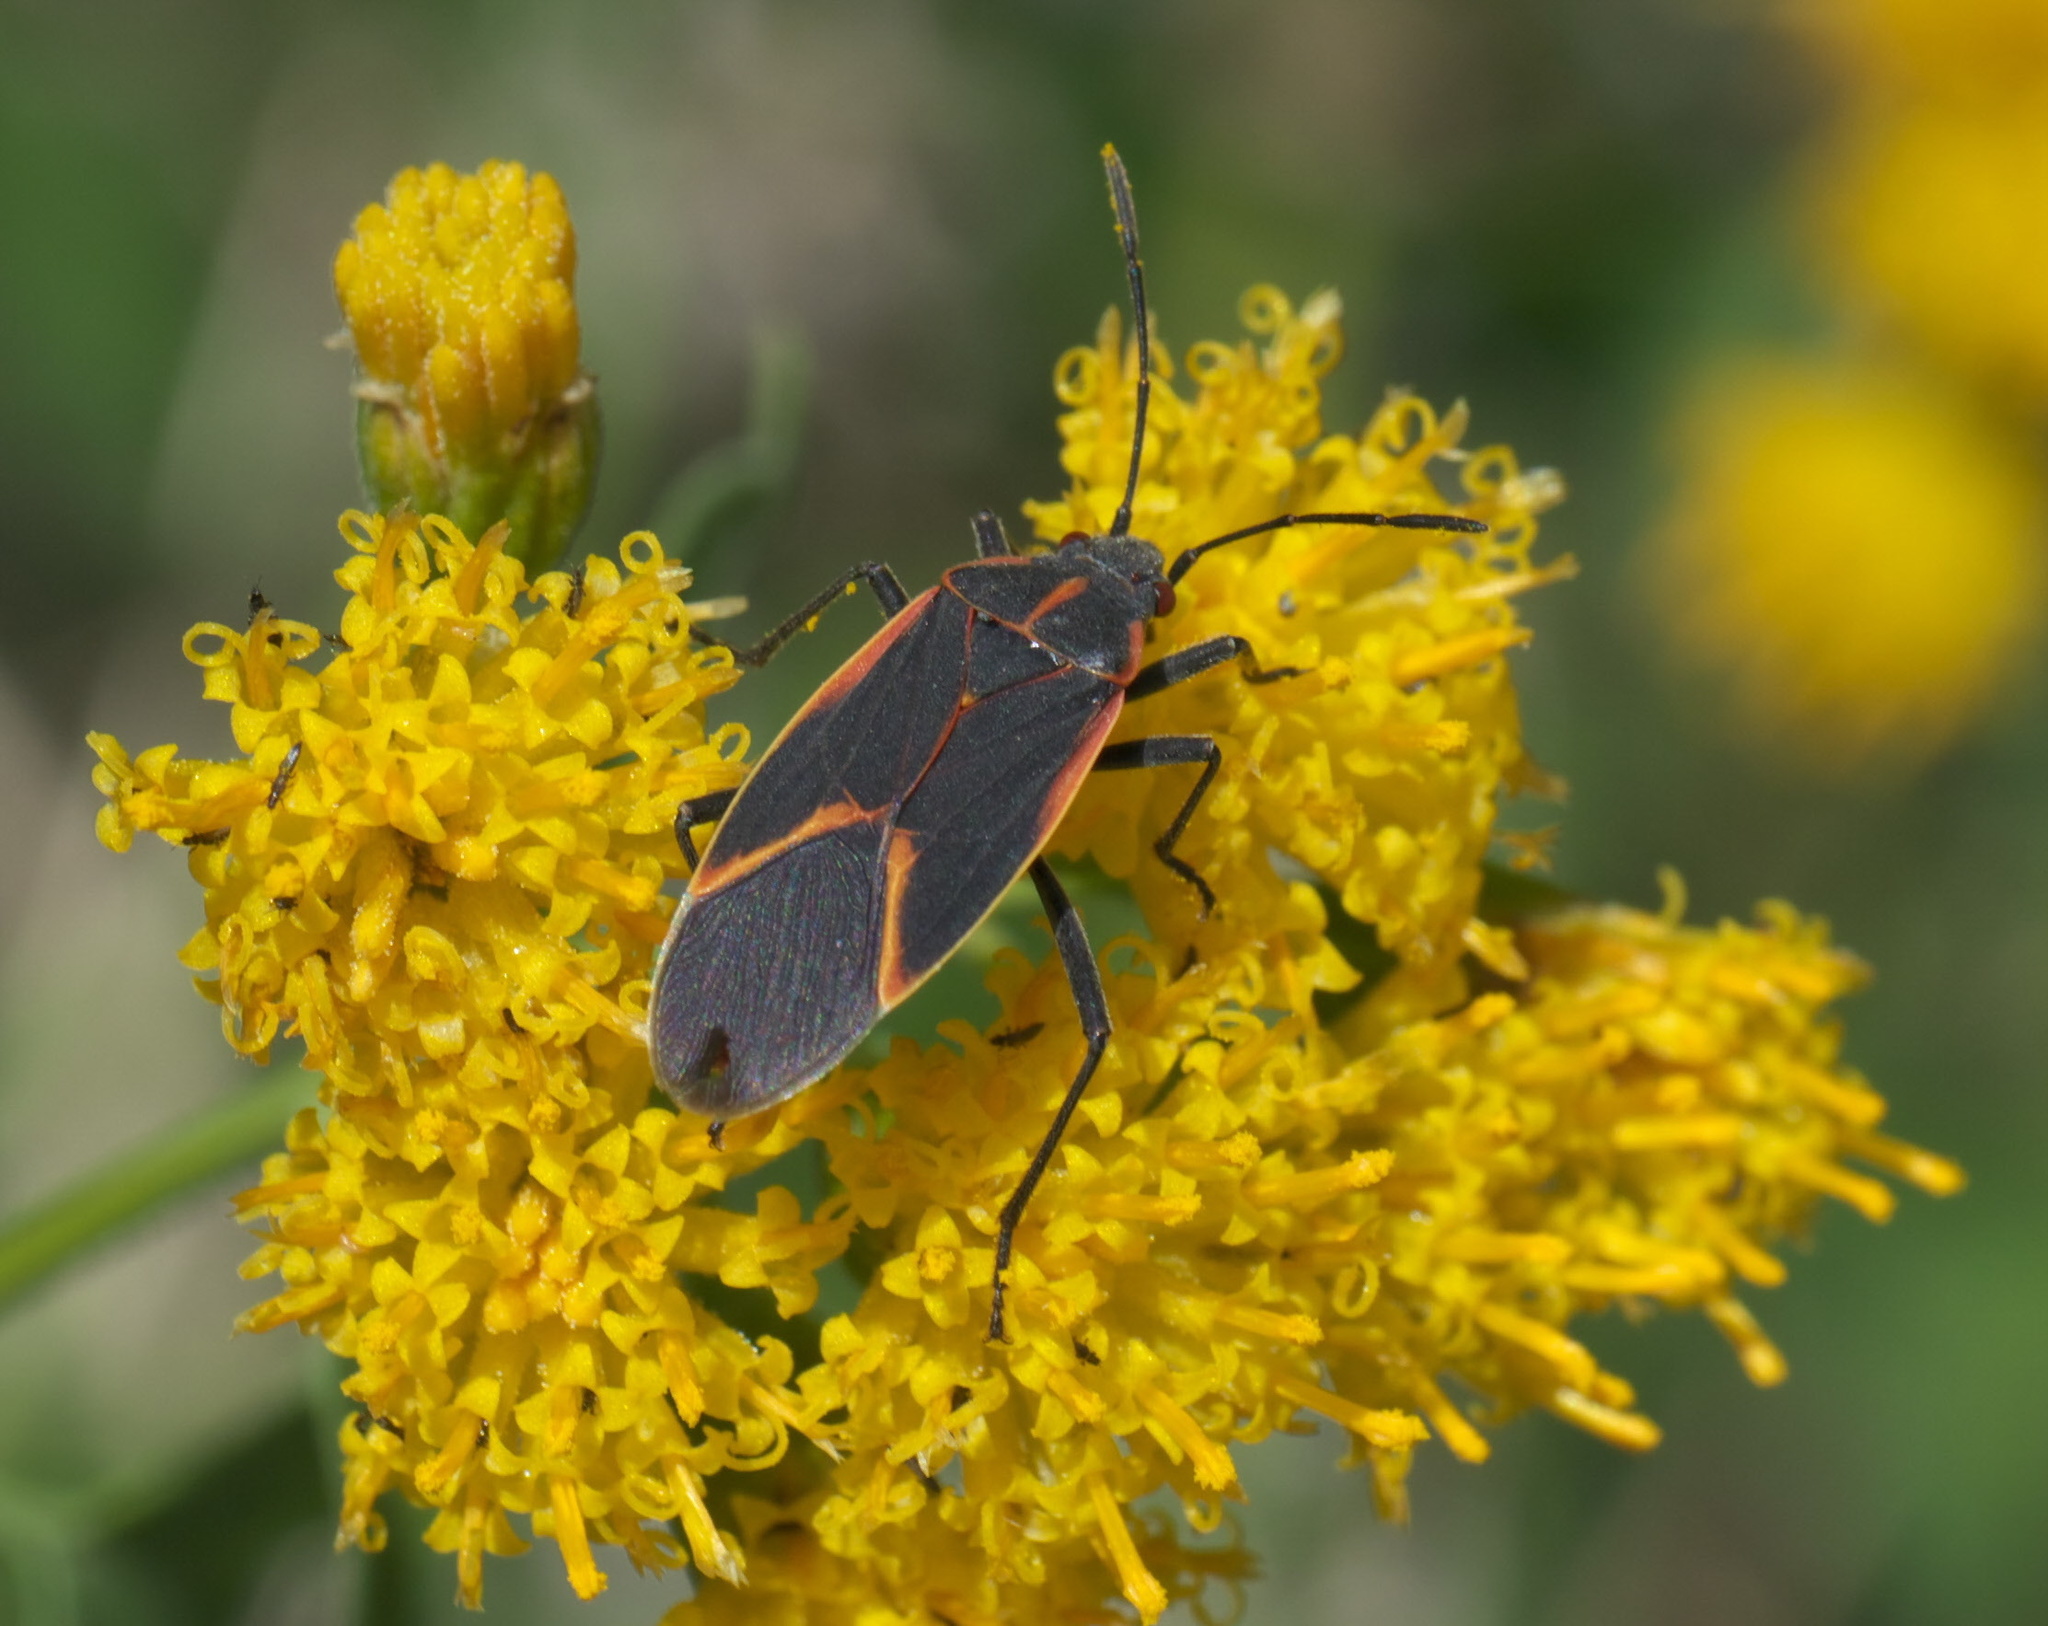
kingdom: Animalia
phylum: Arthropoda
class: Insecta
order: Hemiptera
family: Rhopalidae
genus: Boisea
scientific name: Boisea trivittata
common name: Boxelder bug
